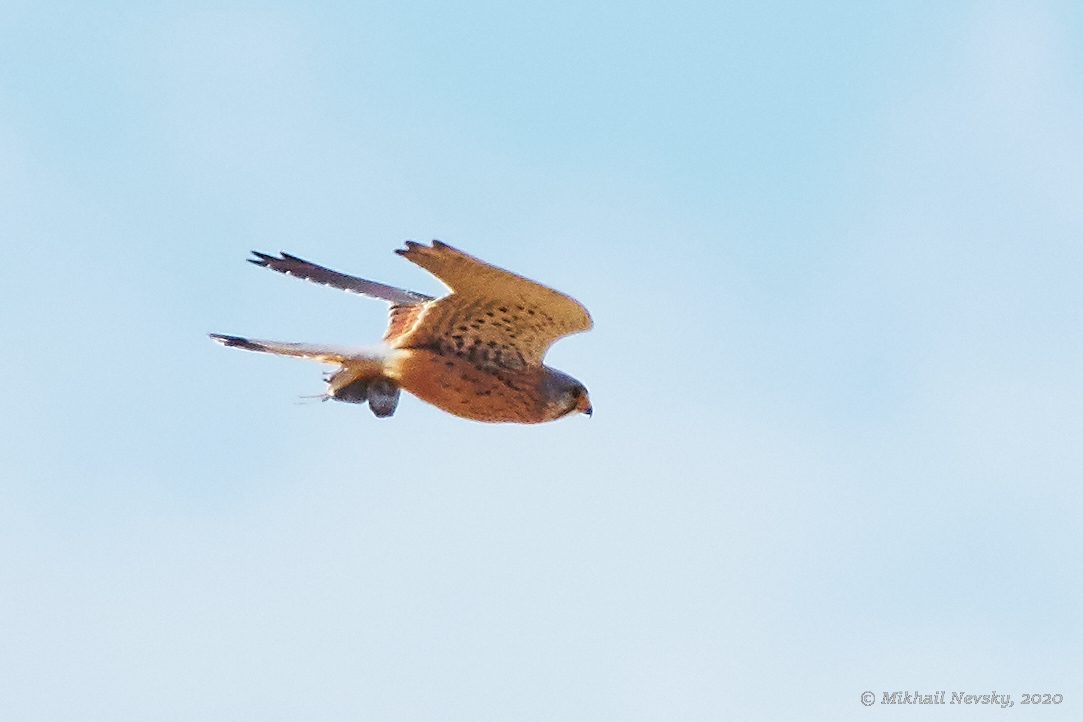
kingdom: Animalia
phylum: Chordata
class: Aves
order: Falconiformes
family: Falconidae
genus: Falco
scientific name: Falco tinnunculus
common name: Common kestrel
